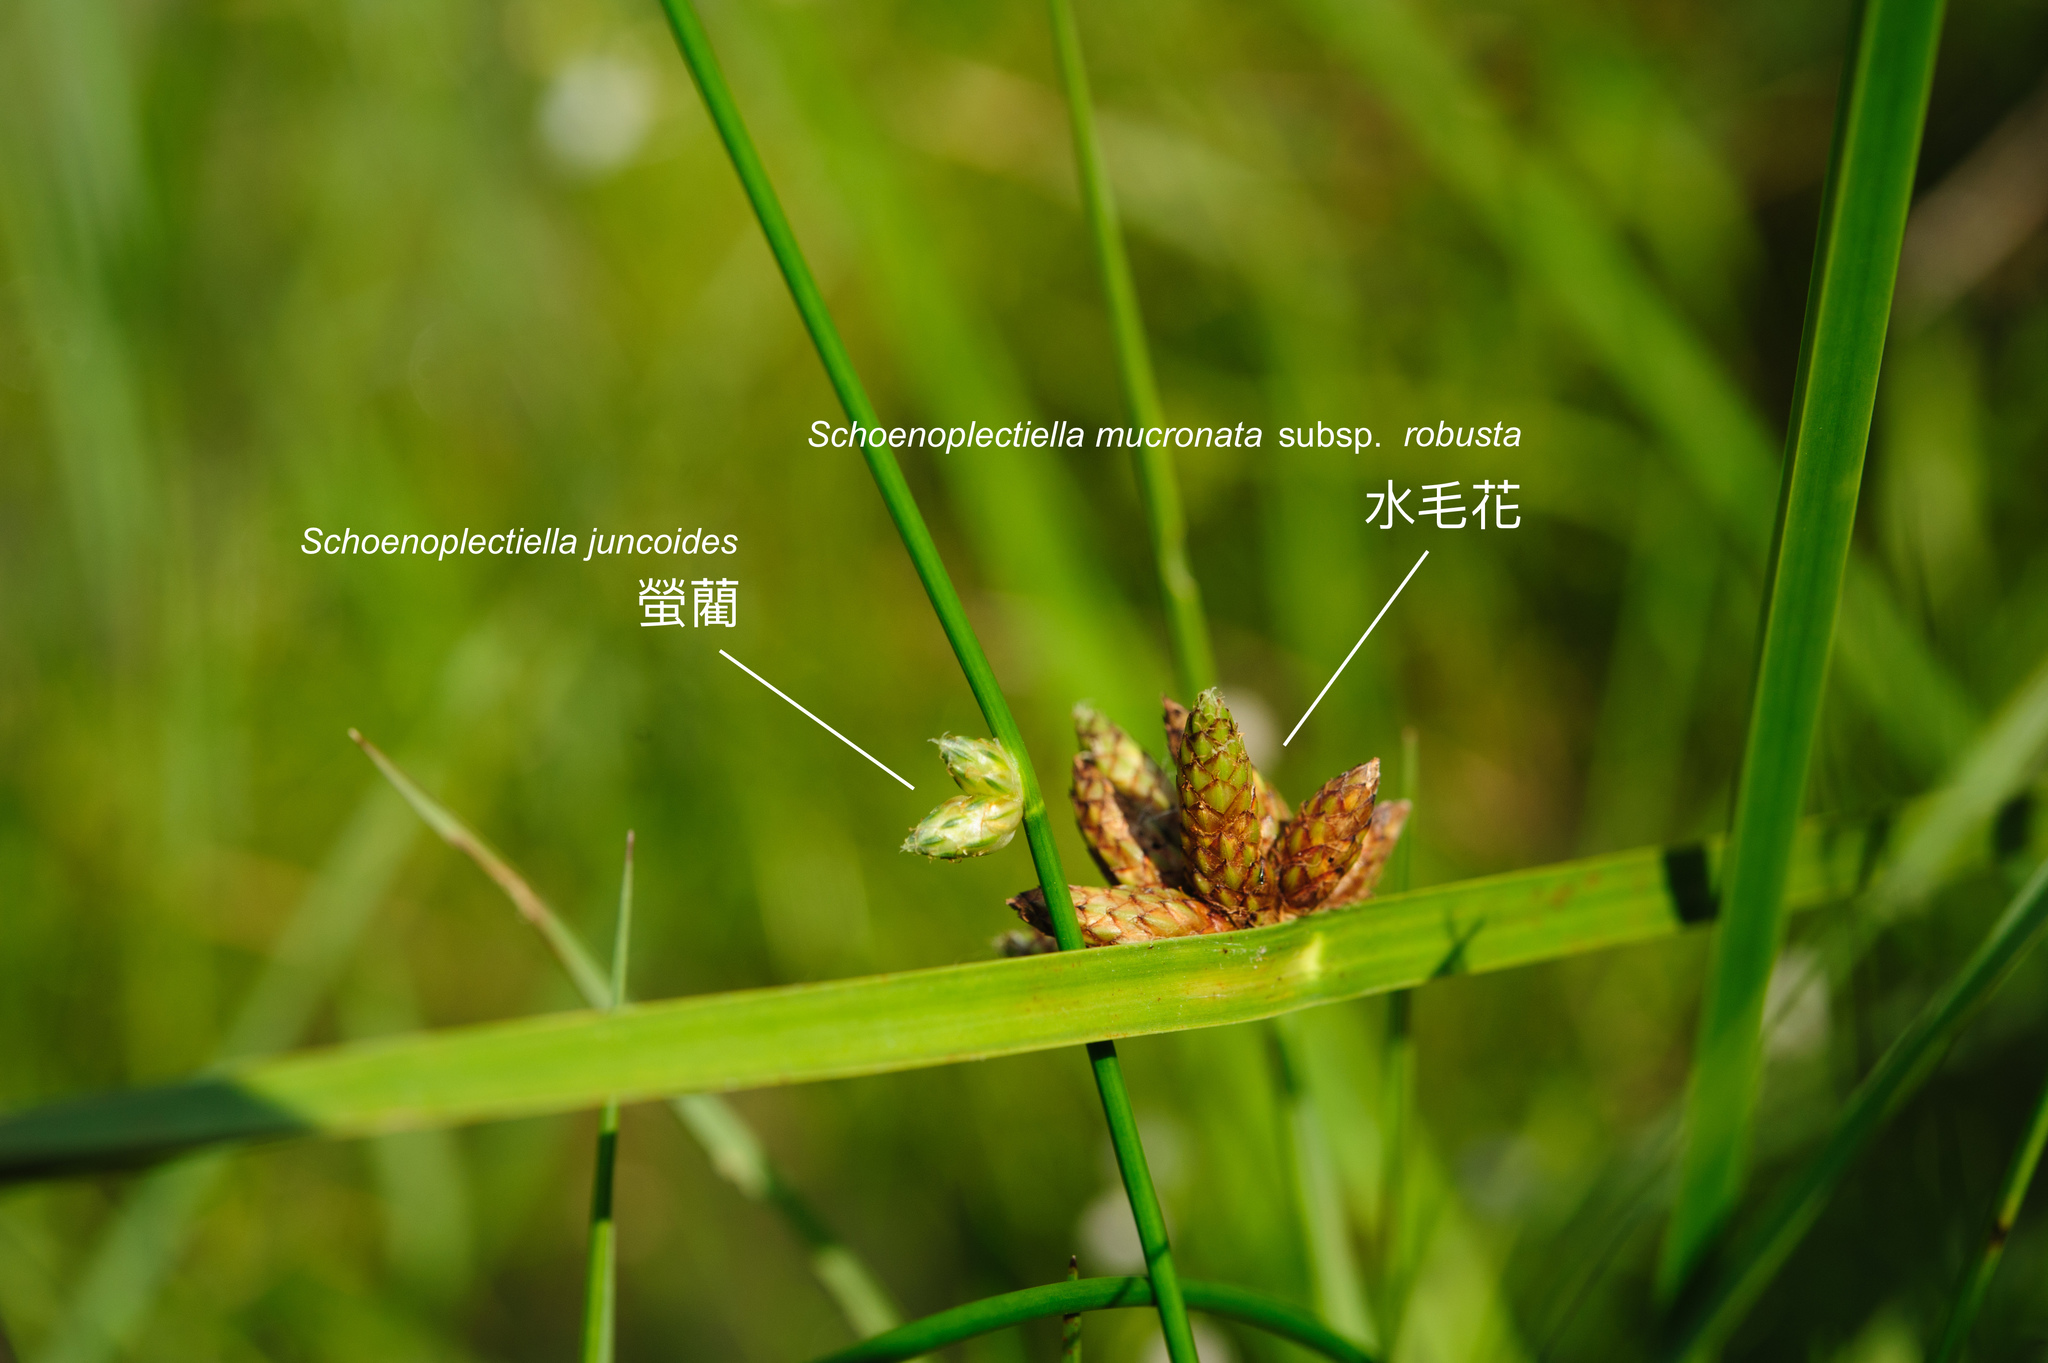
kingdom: Plantae
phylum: Tracheophyta
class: Liliopsida
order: Poales
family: Cyperaceae
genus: Schoenoplectiella
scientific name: Schoenoplectiella mucronata
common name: Bog bulrush
